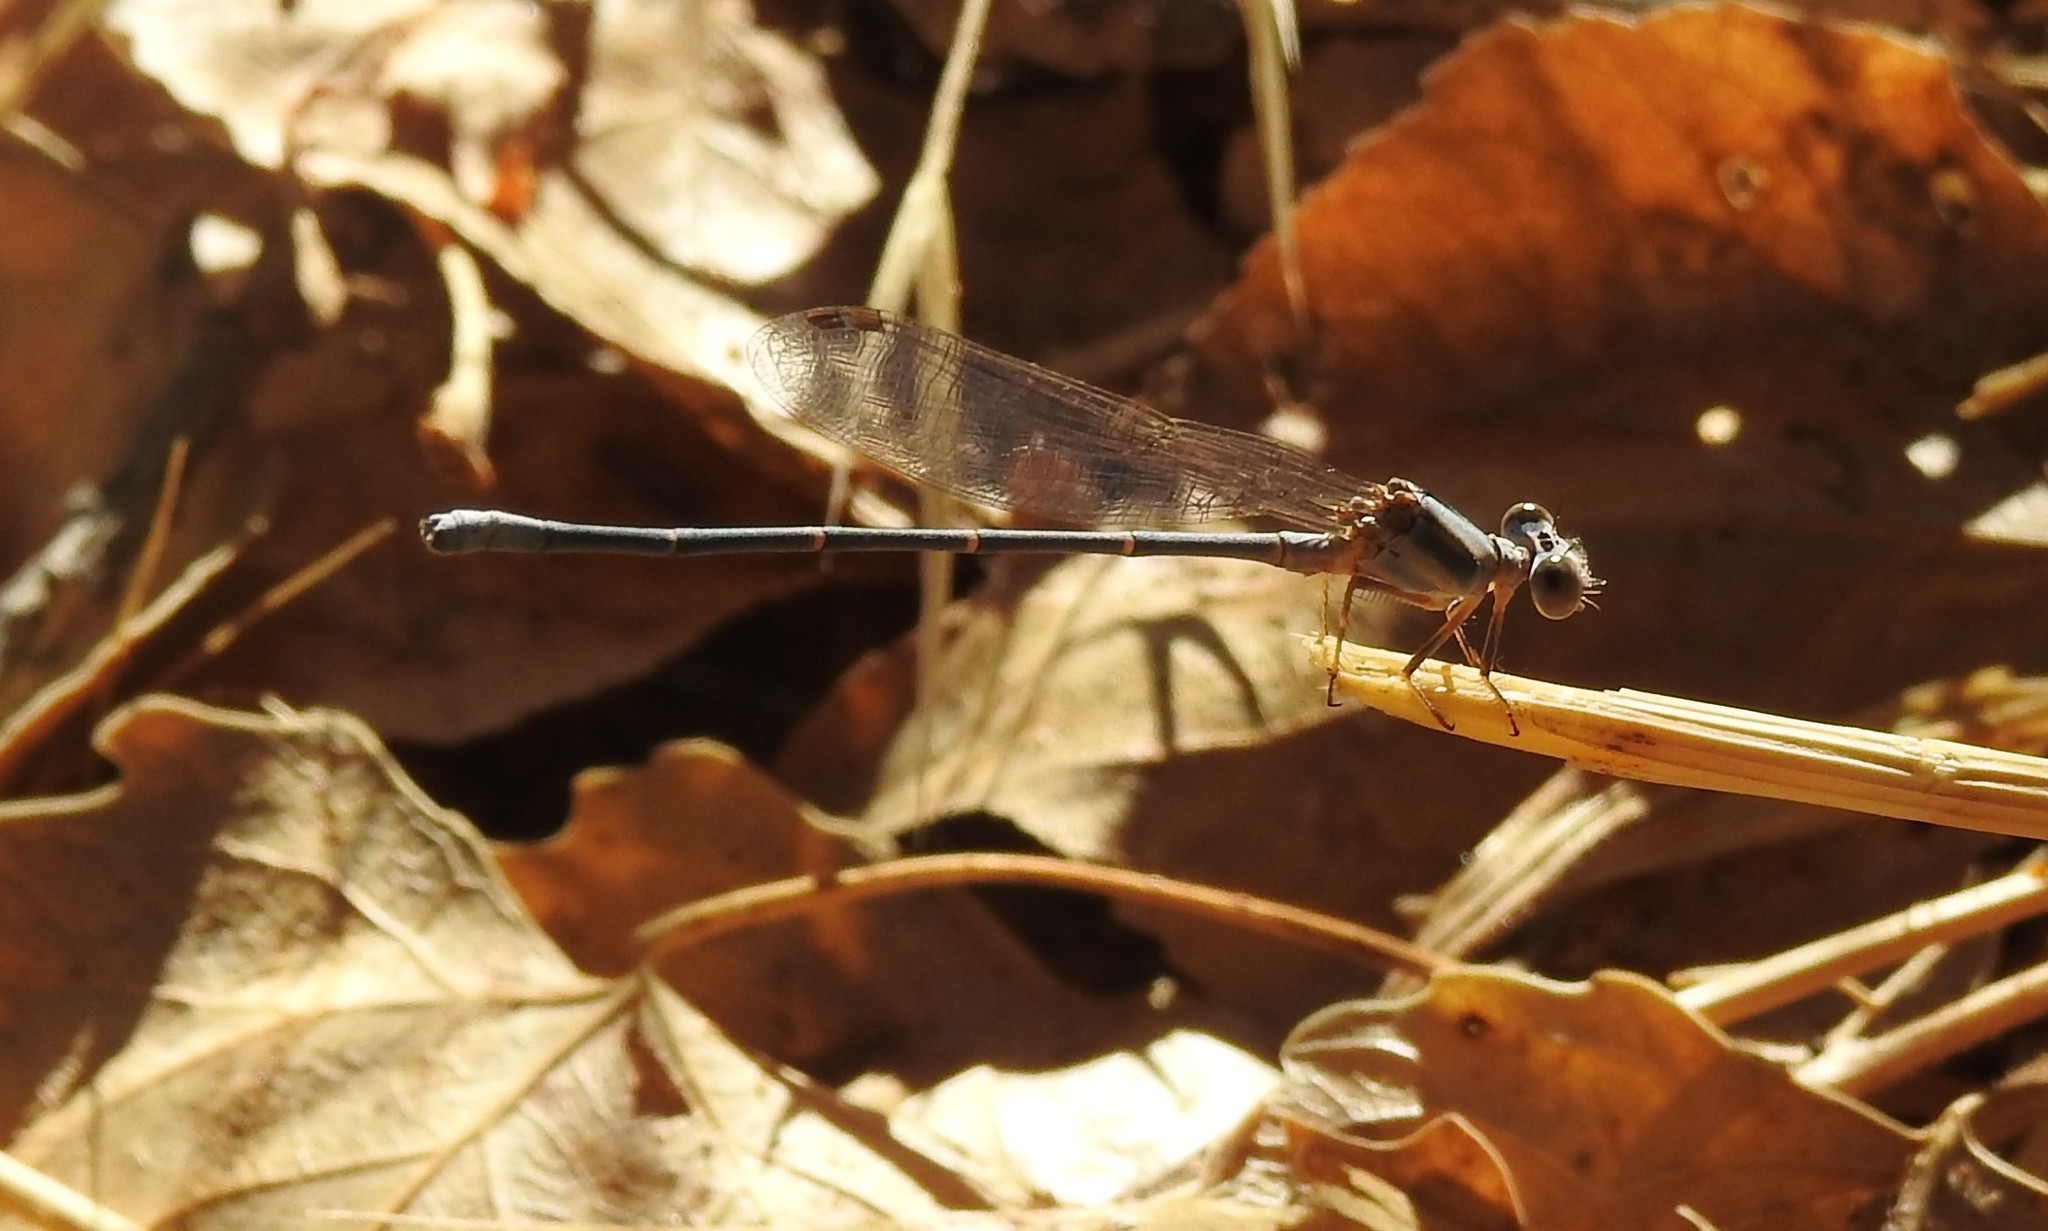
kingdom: Animalia
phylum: Arthropoda
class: Insecta
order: Odonata
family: Coenagrionidae
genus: Argia
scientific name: Argia moesta
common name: Powdered dancer
